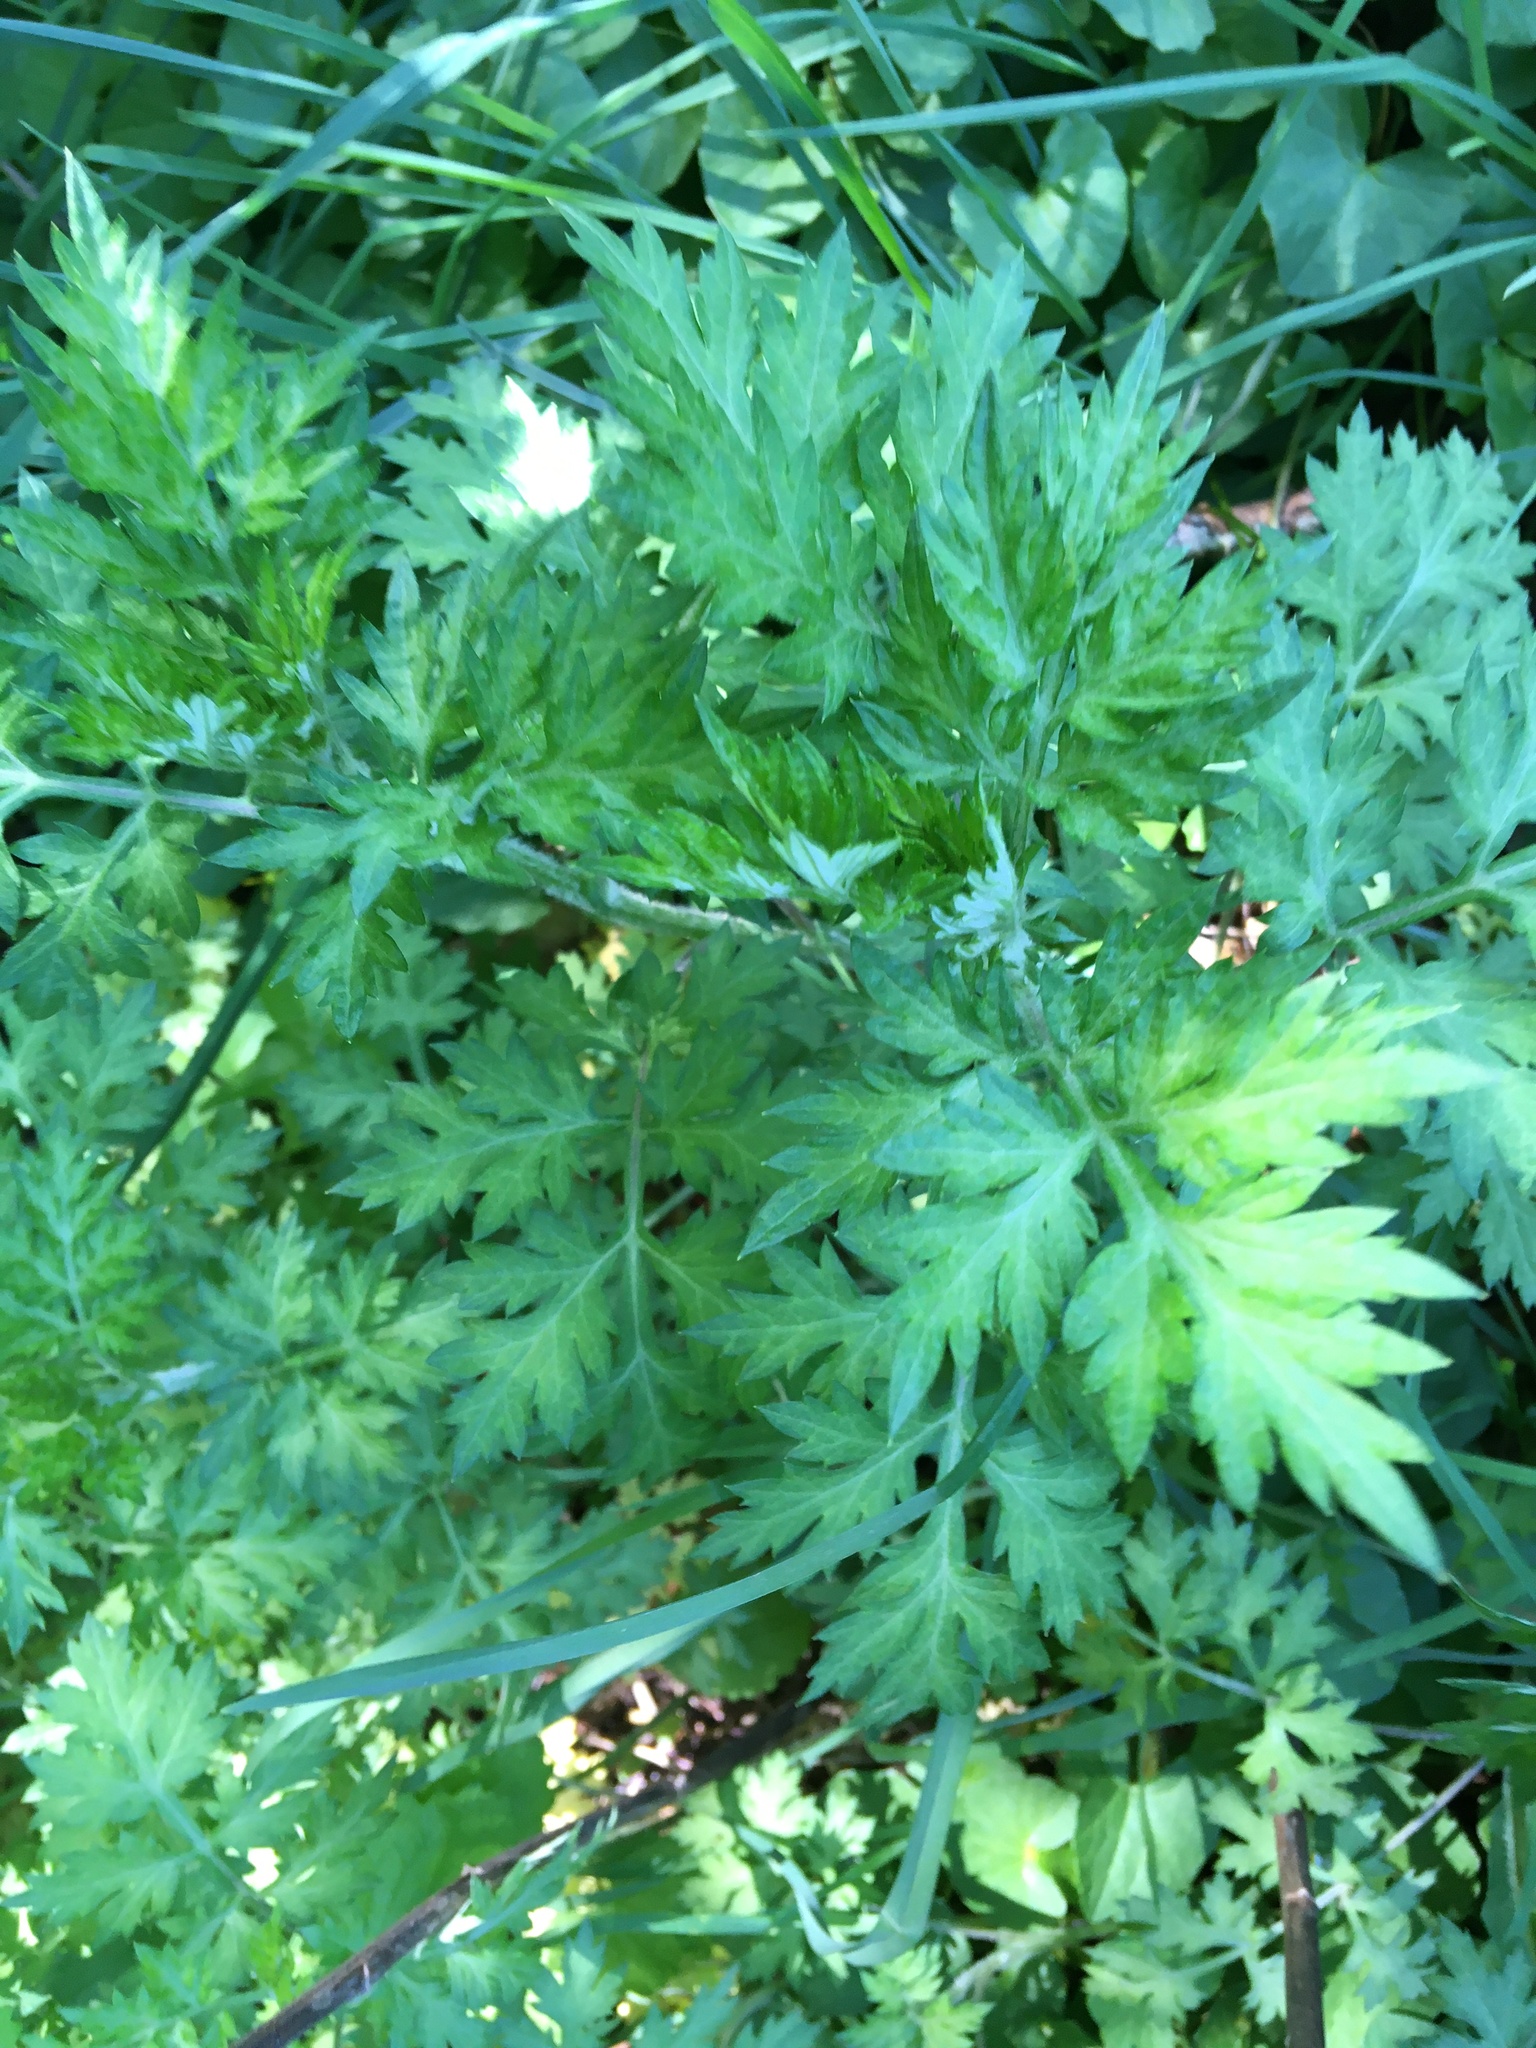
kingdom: Plantae
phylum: Tracheophyta
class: Magnoliopsida
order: Asterales
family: Asteraceae
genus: Artemisia
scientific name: Artemisia vulgaris
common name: Mugwort
